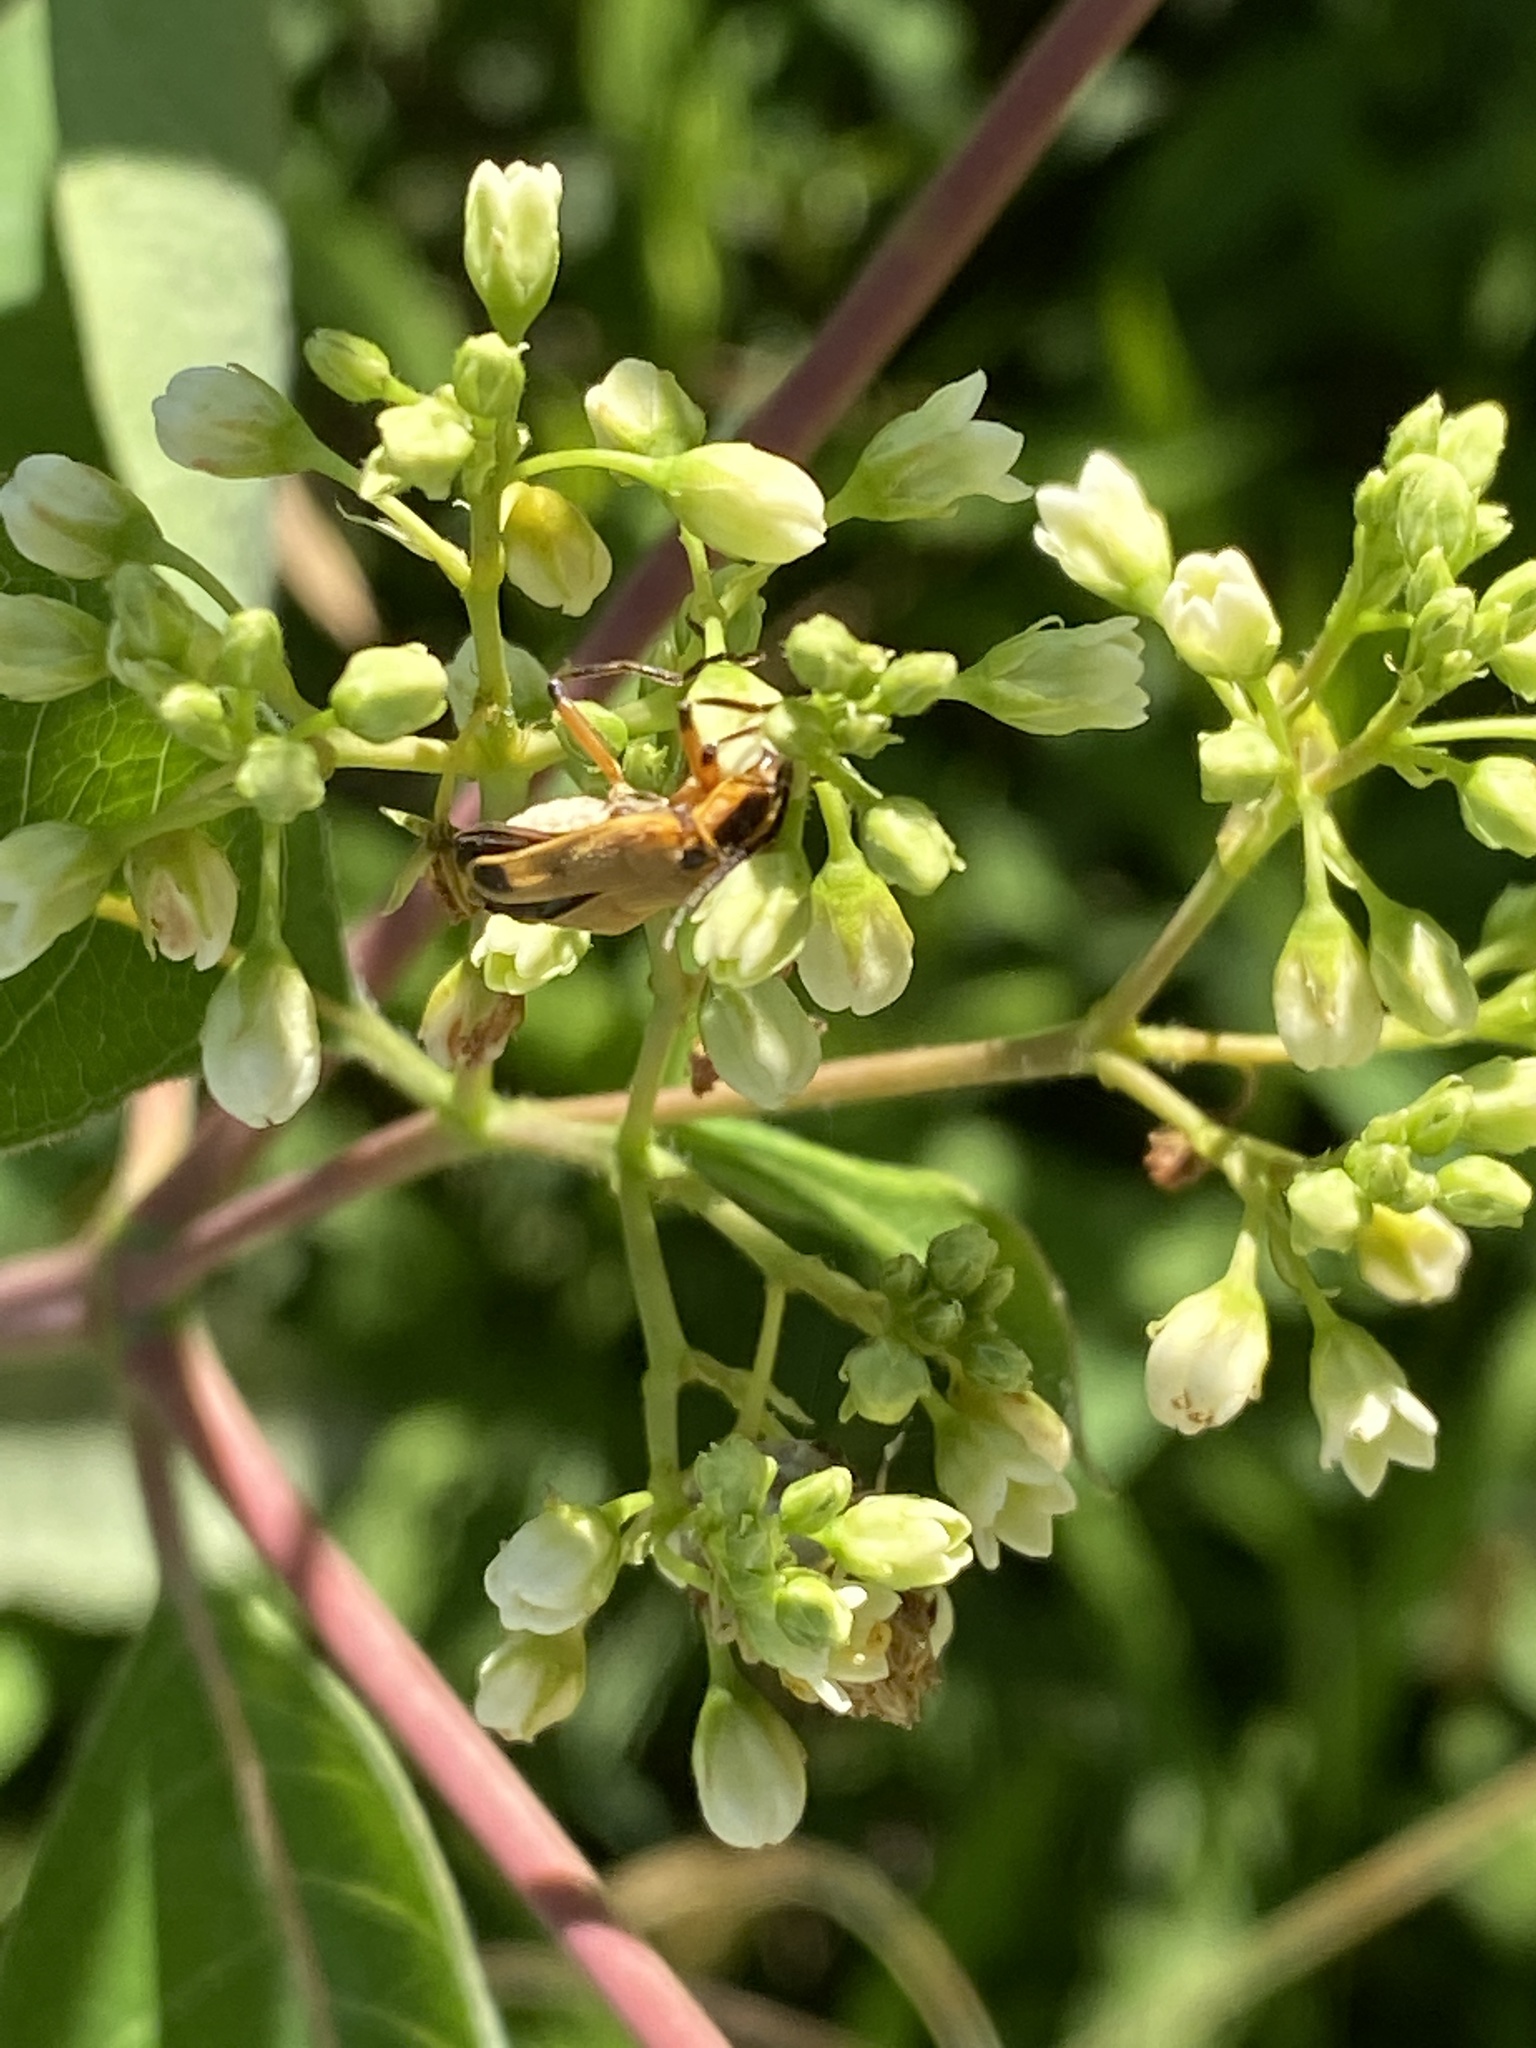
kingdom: Animalia
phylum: Arthropoda
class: Insecta
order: Coleoptera
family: Cantharidae
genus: Chauliognathus
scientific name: Chauliognathus marginatus
